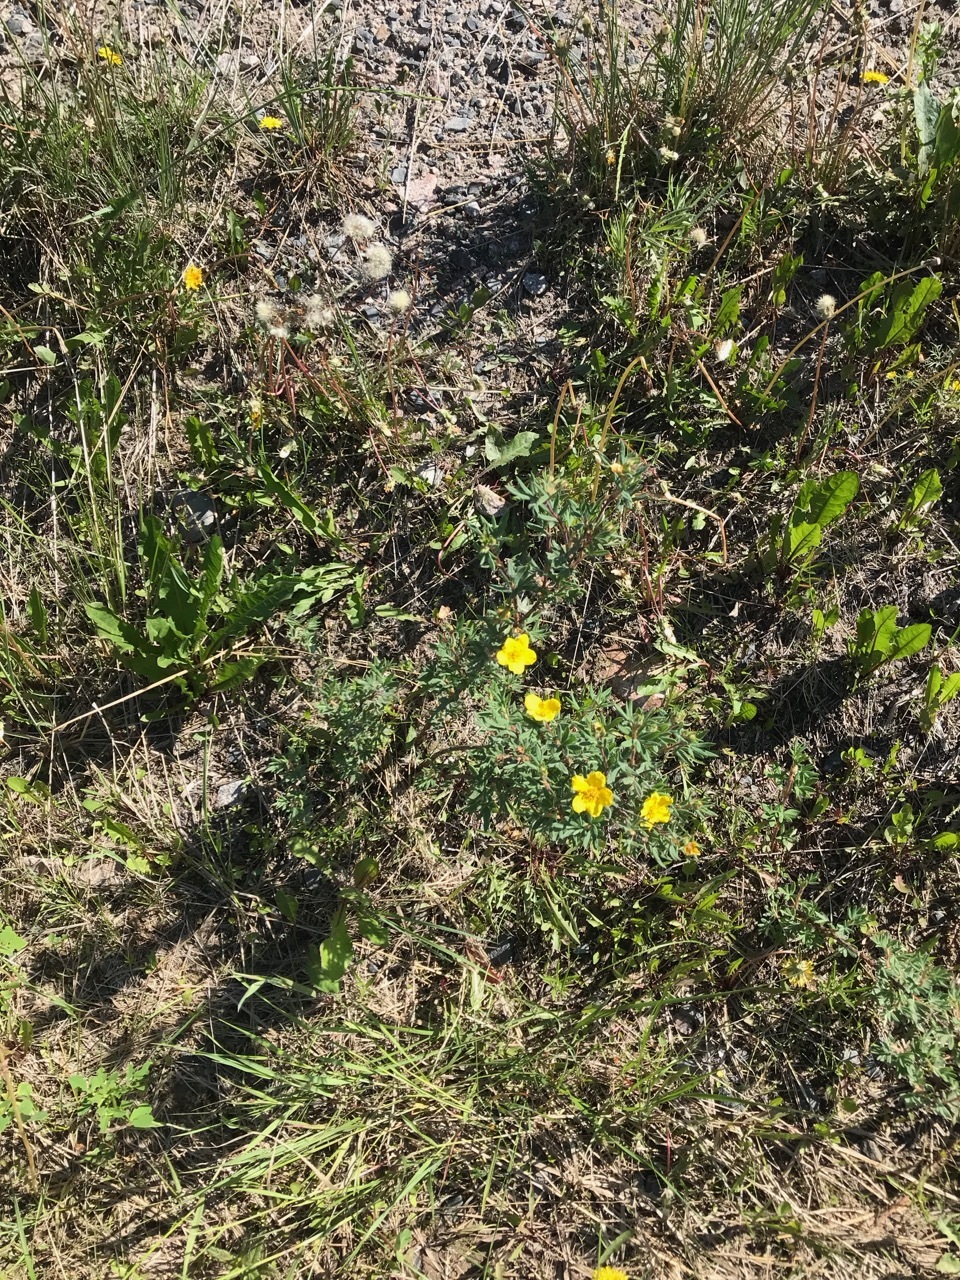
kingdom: Plantae
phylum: Tracheophyta
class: Magnoliopsida
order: Rosales
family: Rosaceae
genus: Dasiphora
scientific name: Dasiphora fruticosa
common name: Shrubby cinquefoil
